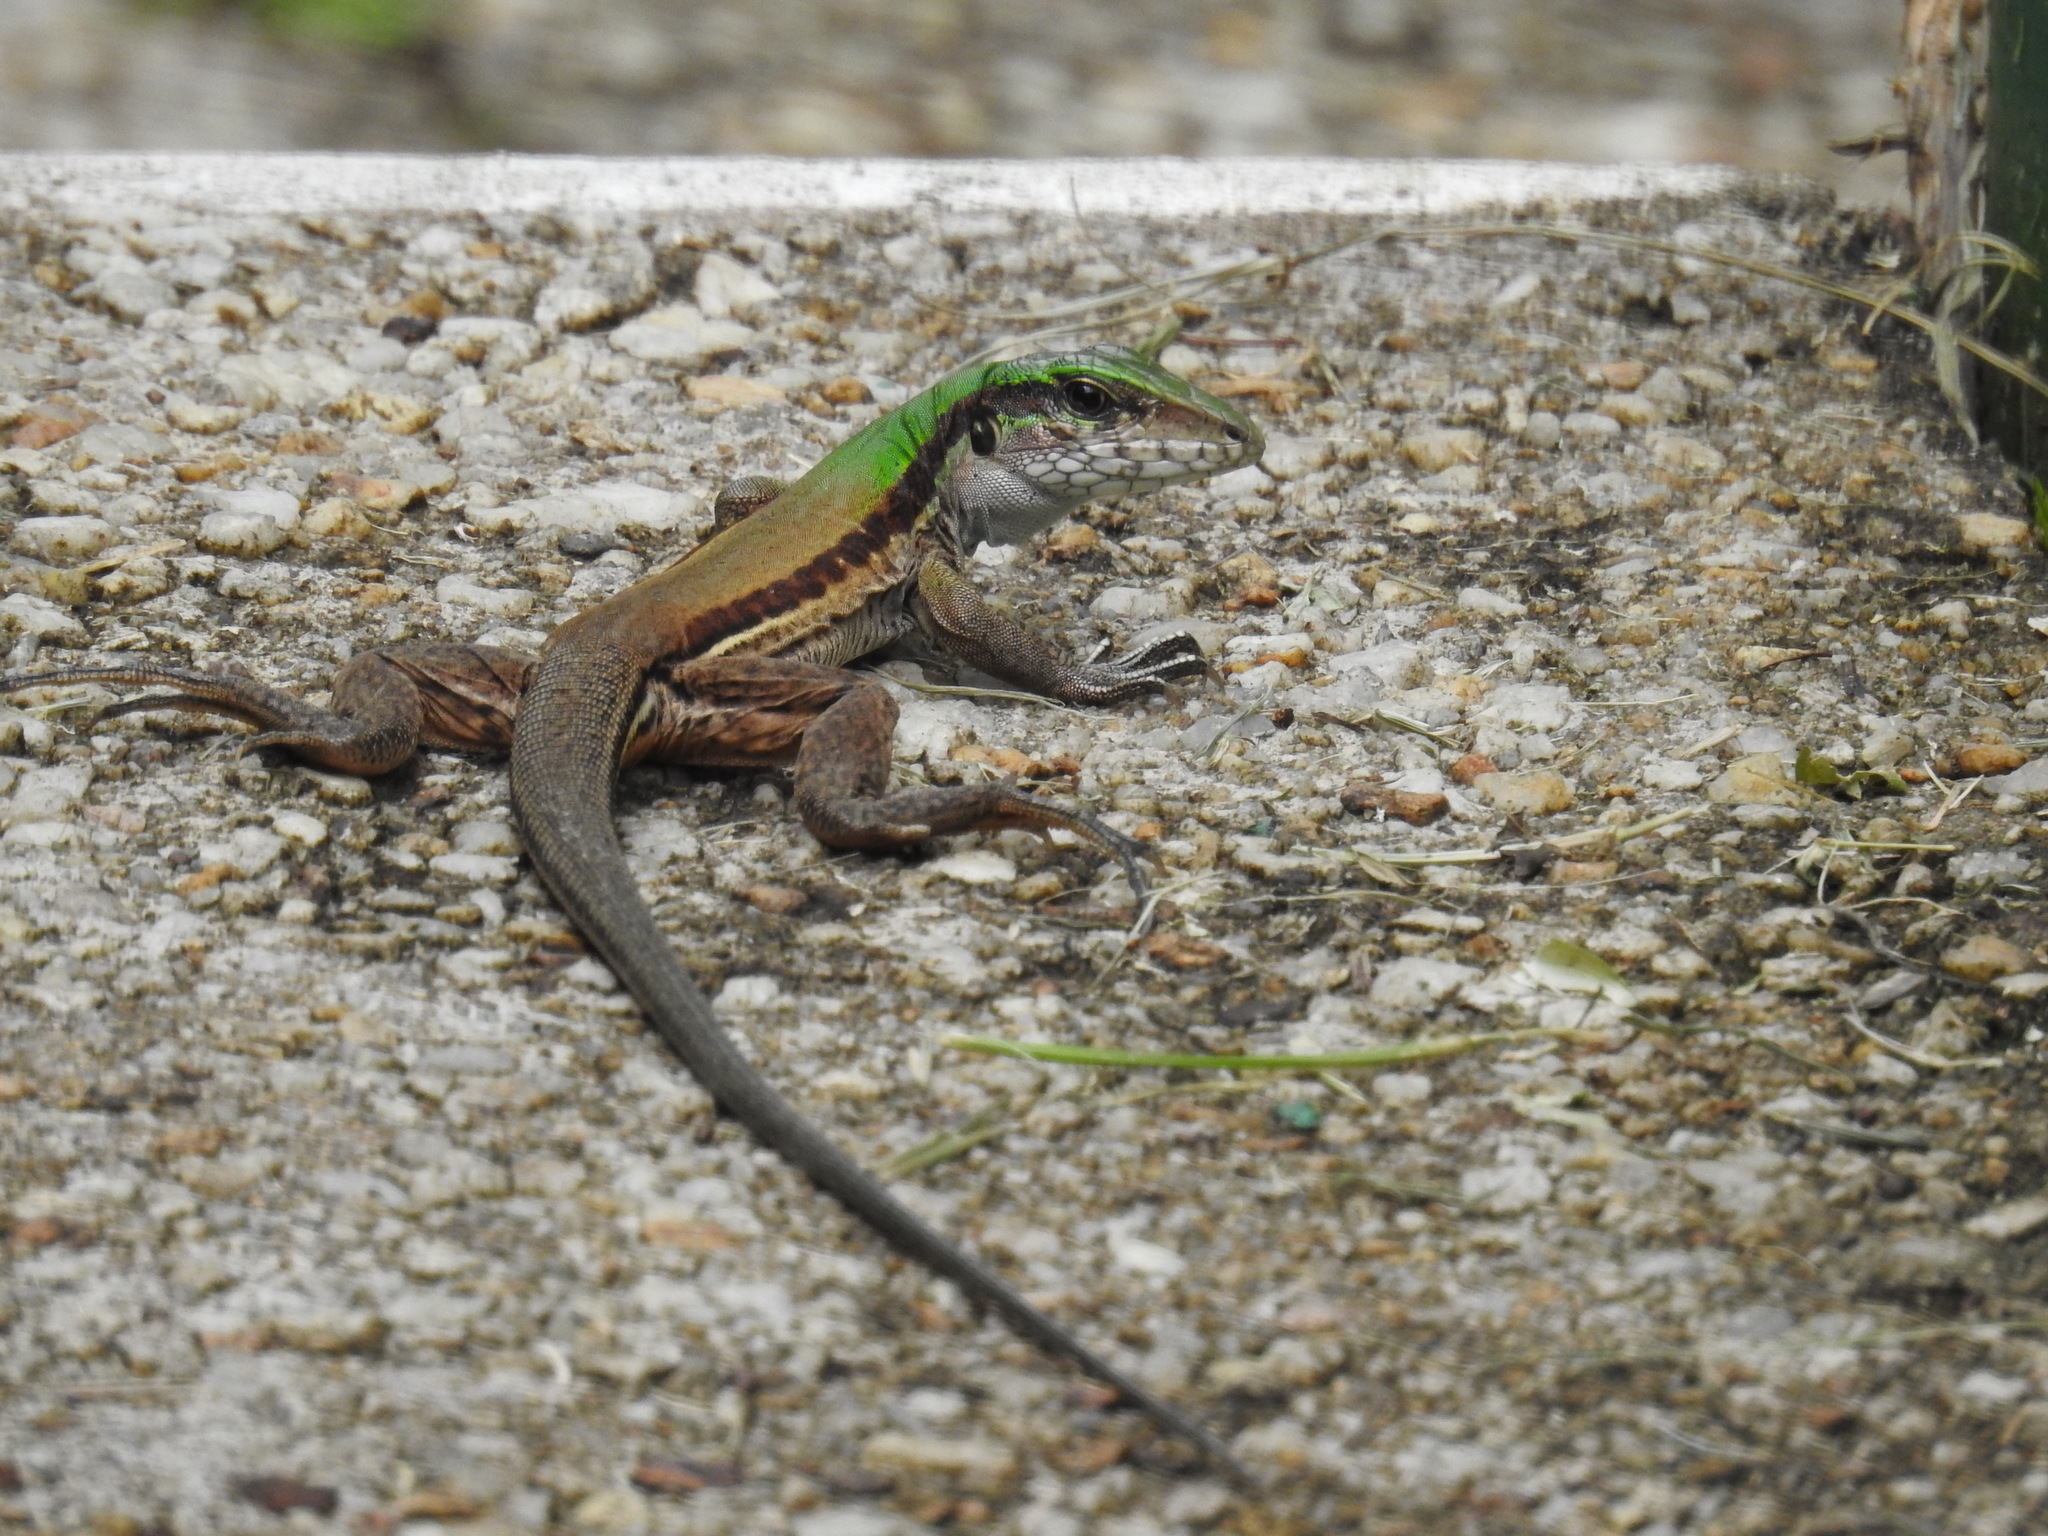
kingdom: Animalia
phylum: Chordata
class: Squamata
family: Teiidae
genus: Ameiva
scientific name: Ameiva atrigularis
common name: Venezuelan ameiva
